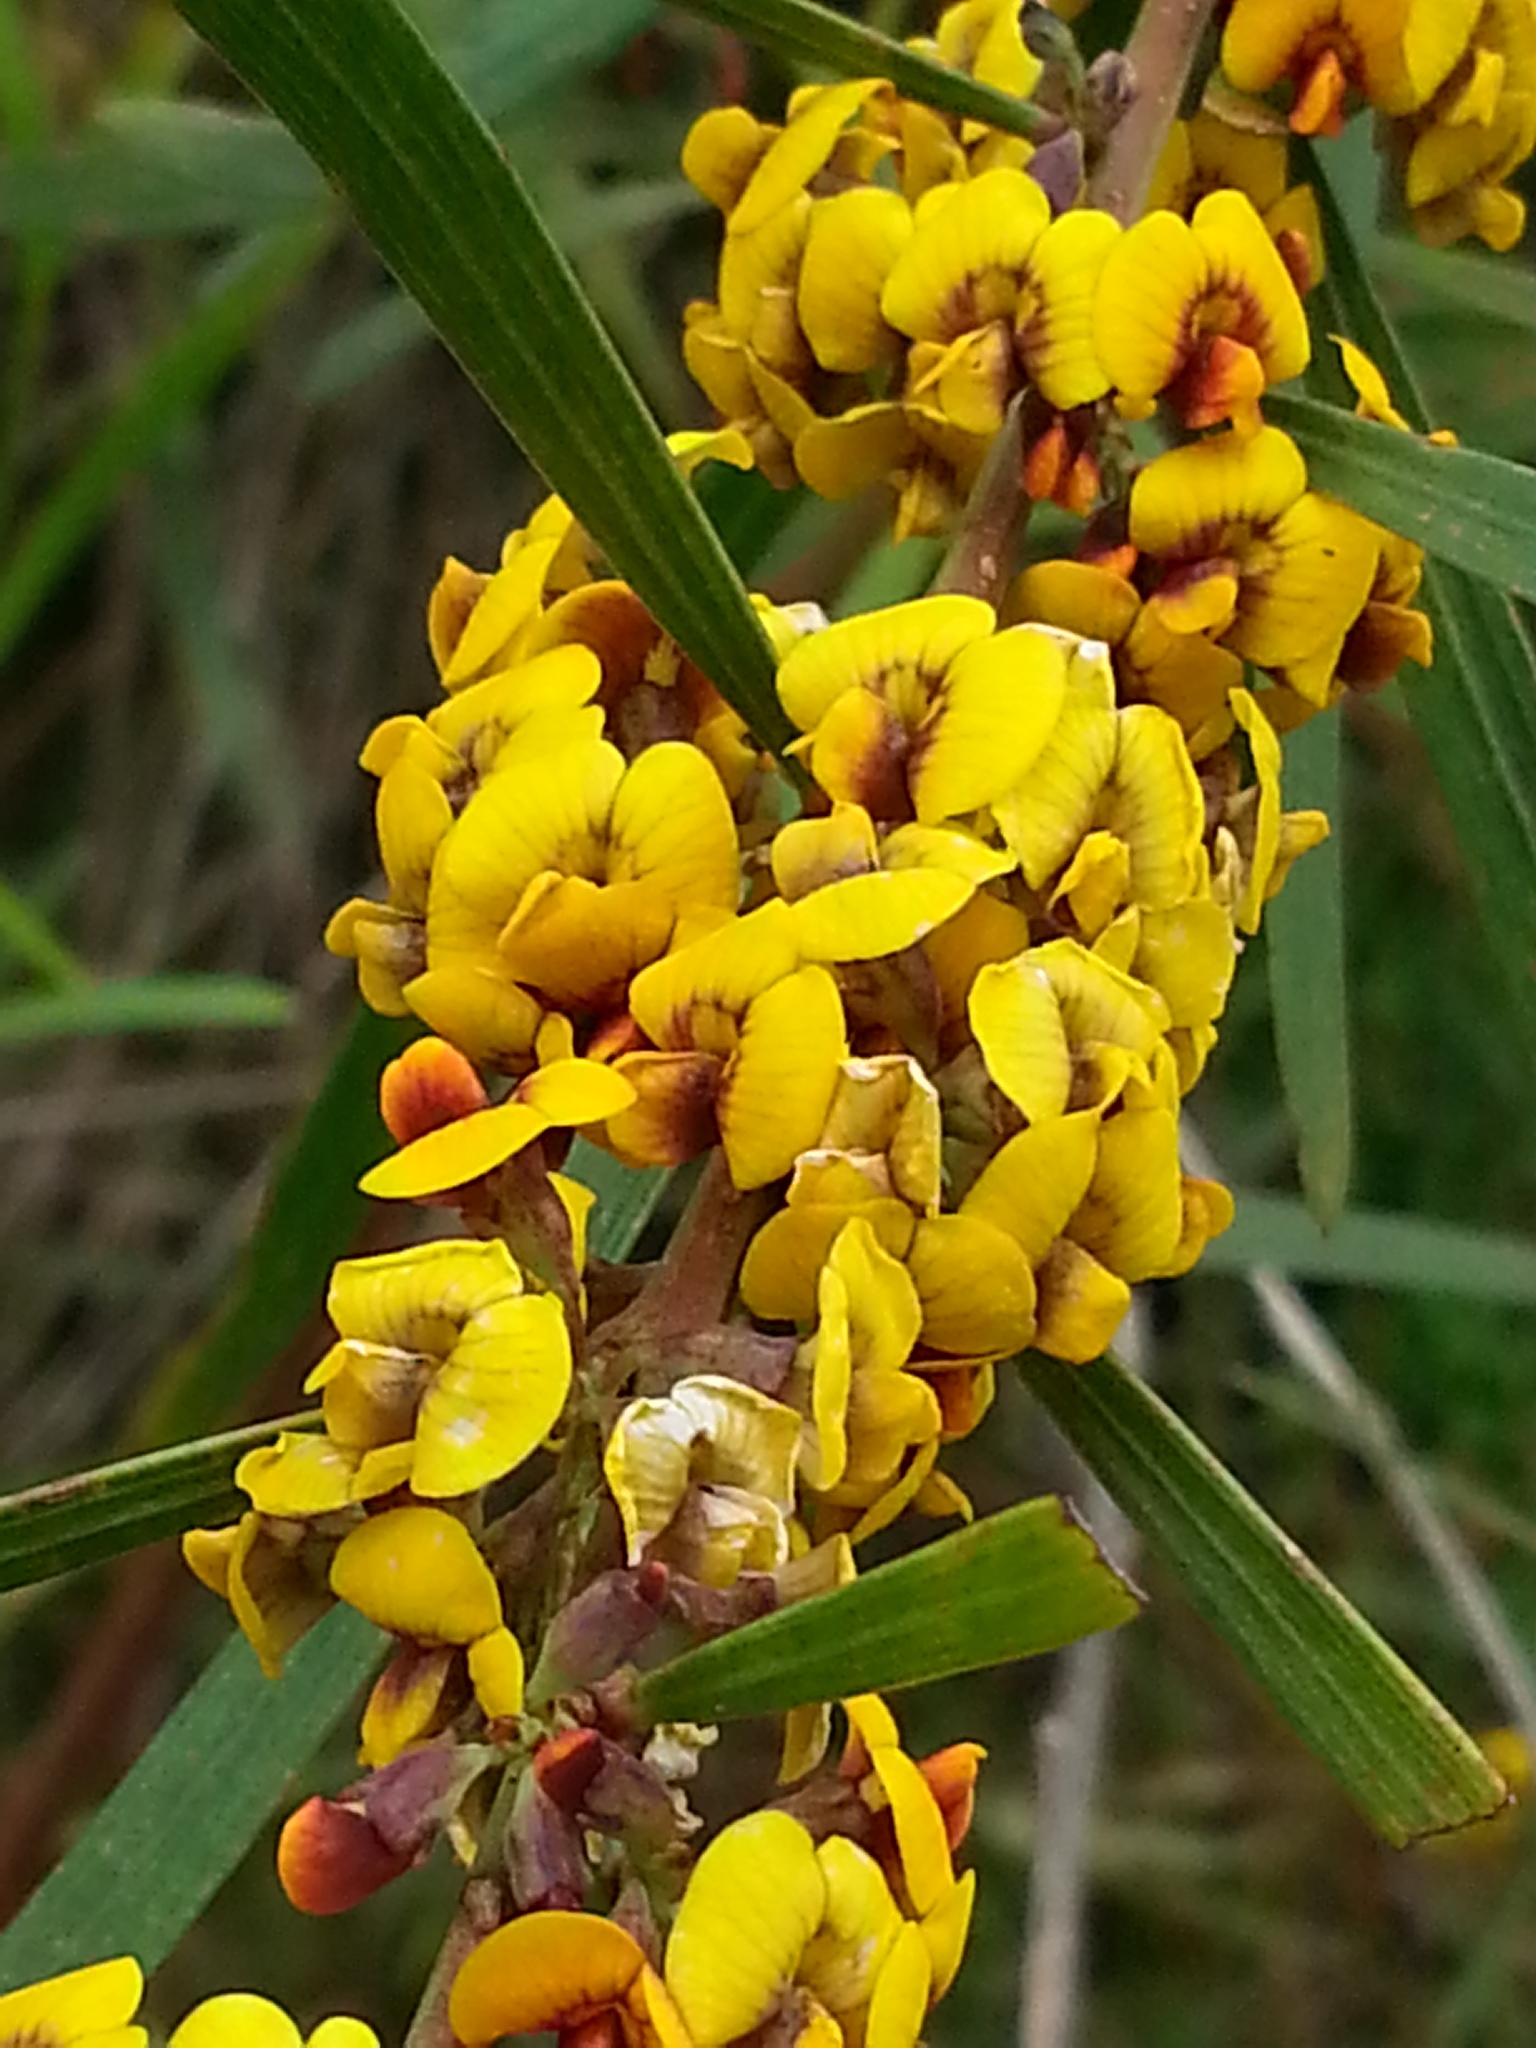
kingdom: Plantae
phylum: Tracheophyta
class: Magnoliopsida
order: Fabales
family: Fabaceae
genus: Daviesia
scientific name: Daviesia leptophylla
